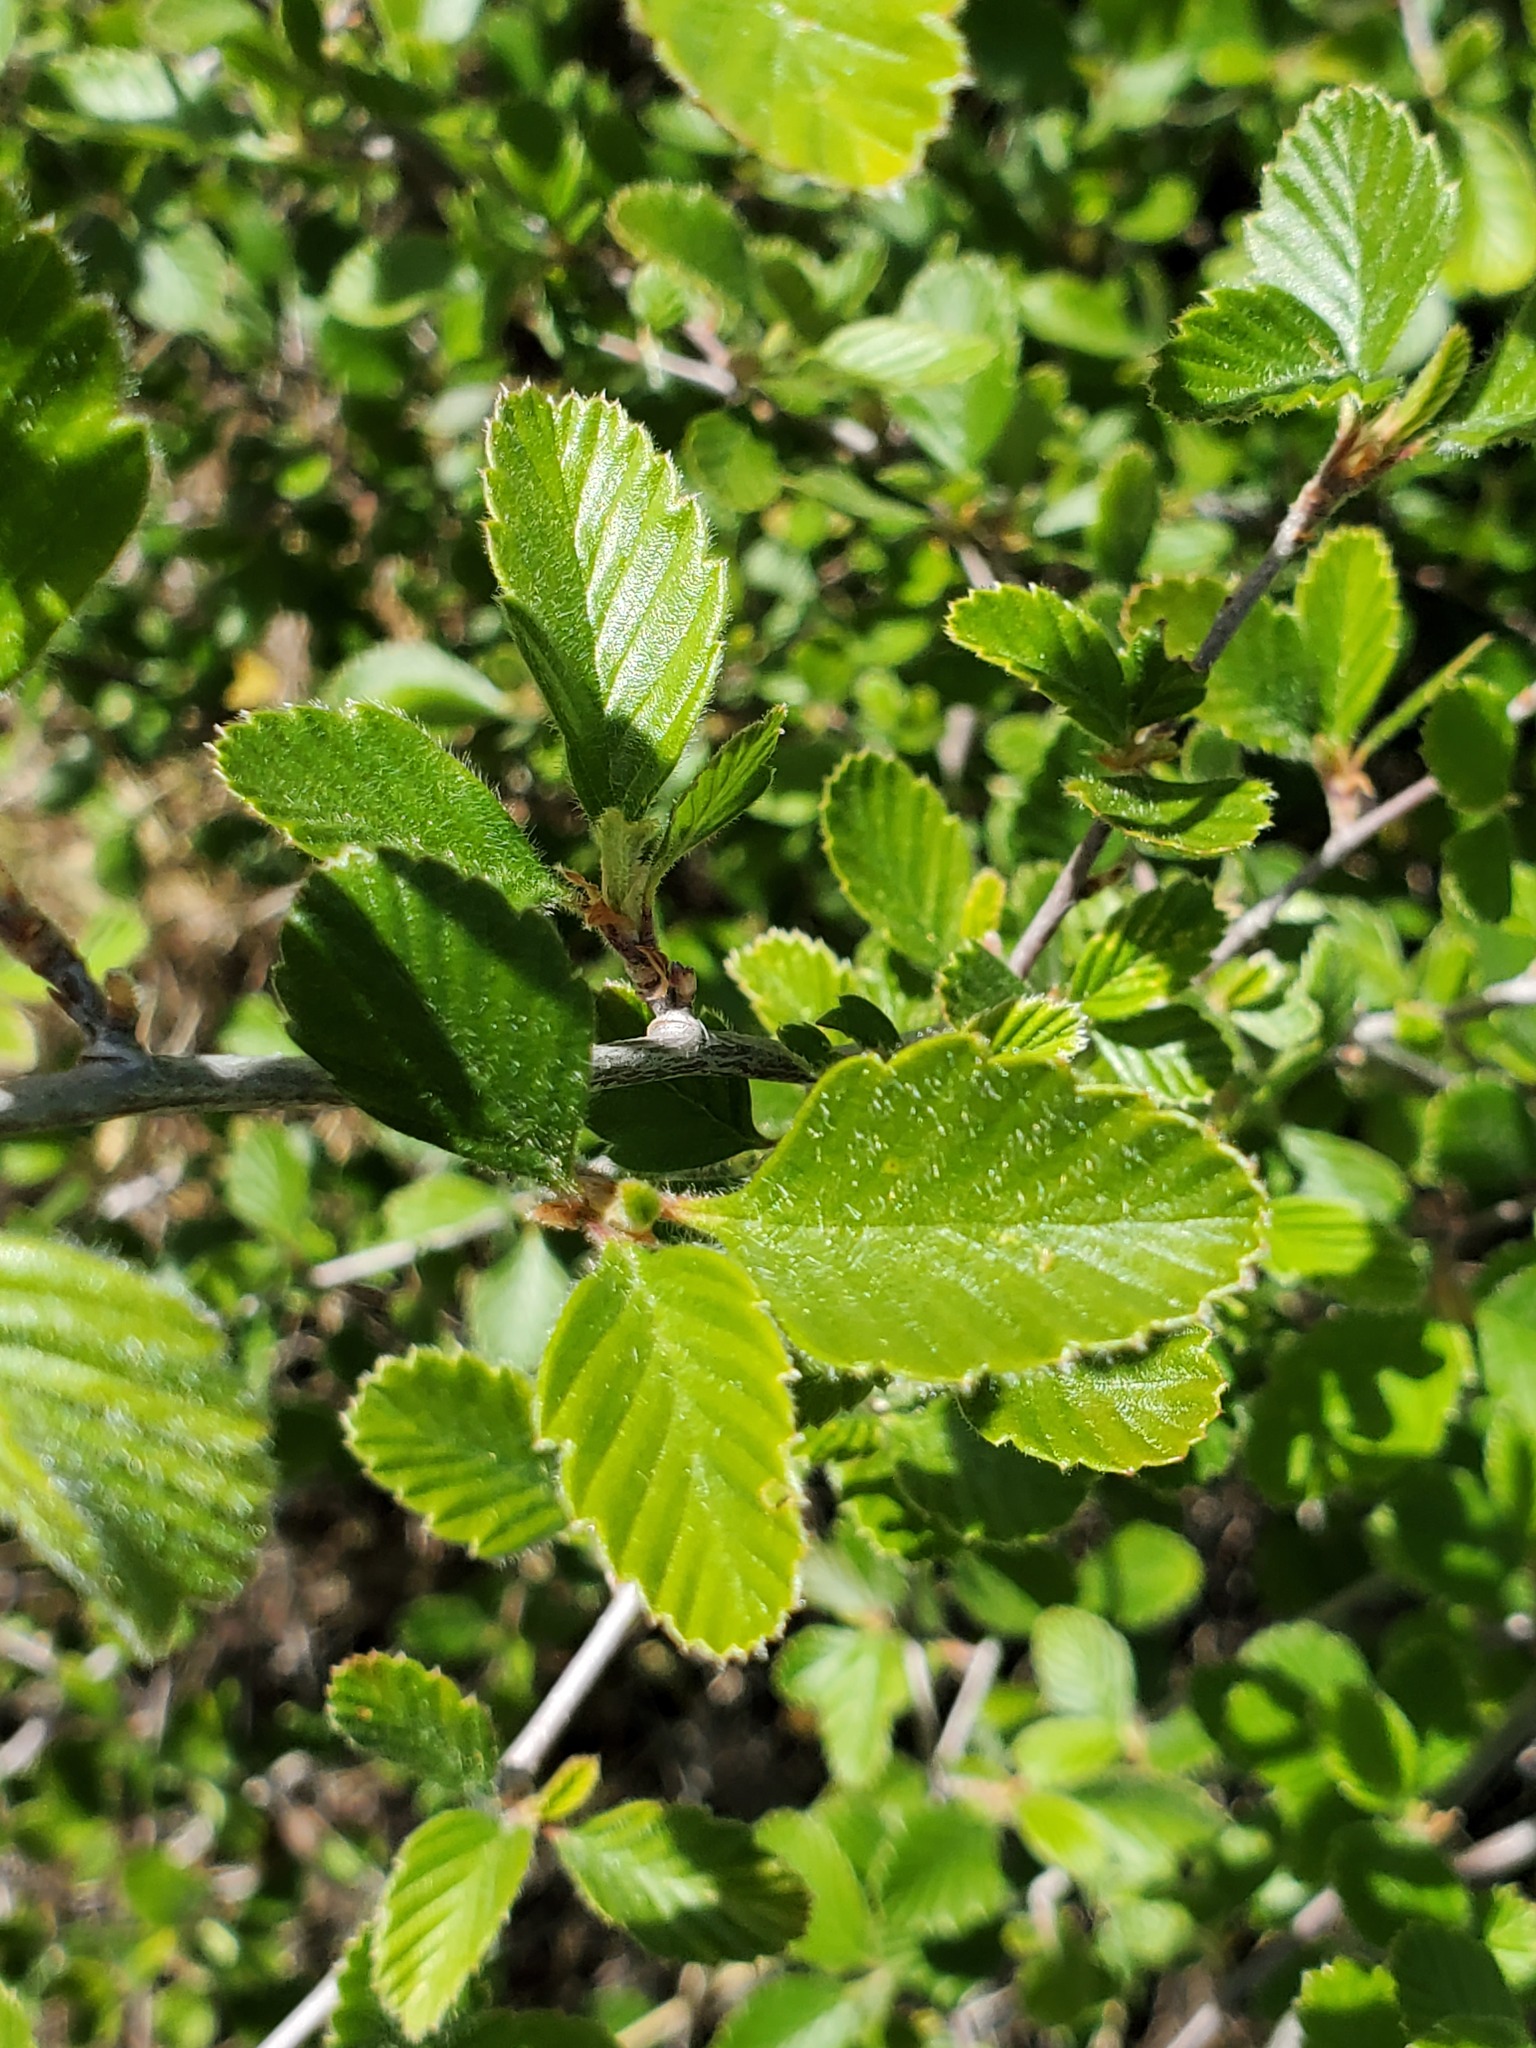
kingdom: Plantae
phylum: Tracheophyta
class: Magnoliopsida
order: Rosales
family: Rosaceae
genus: Cercocarpus
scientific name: Cercocarpus betuloides
